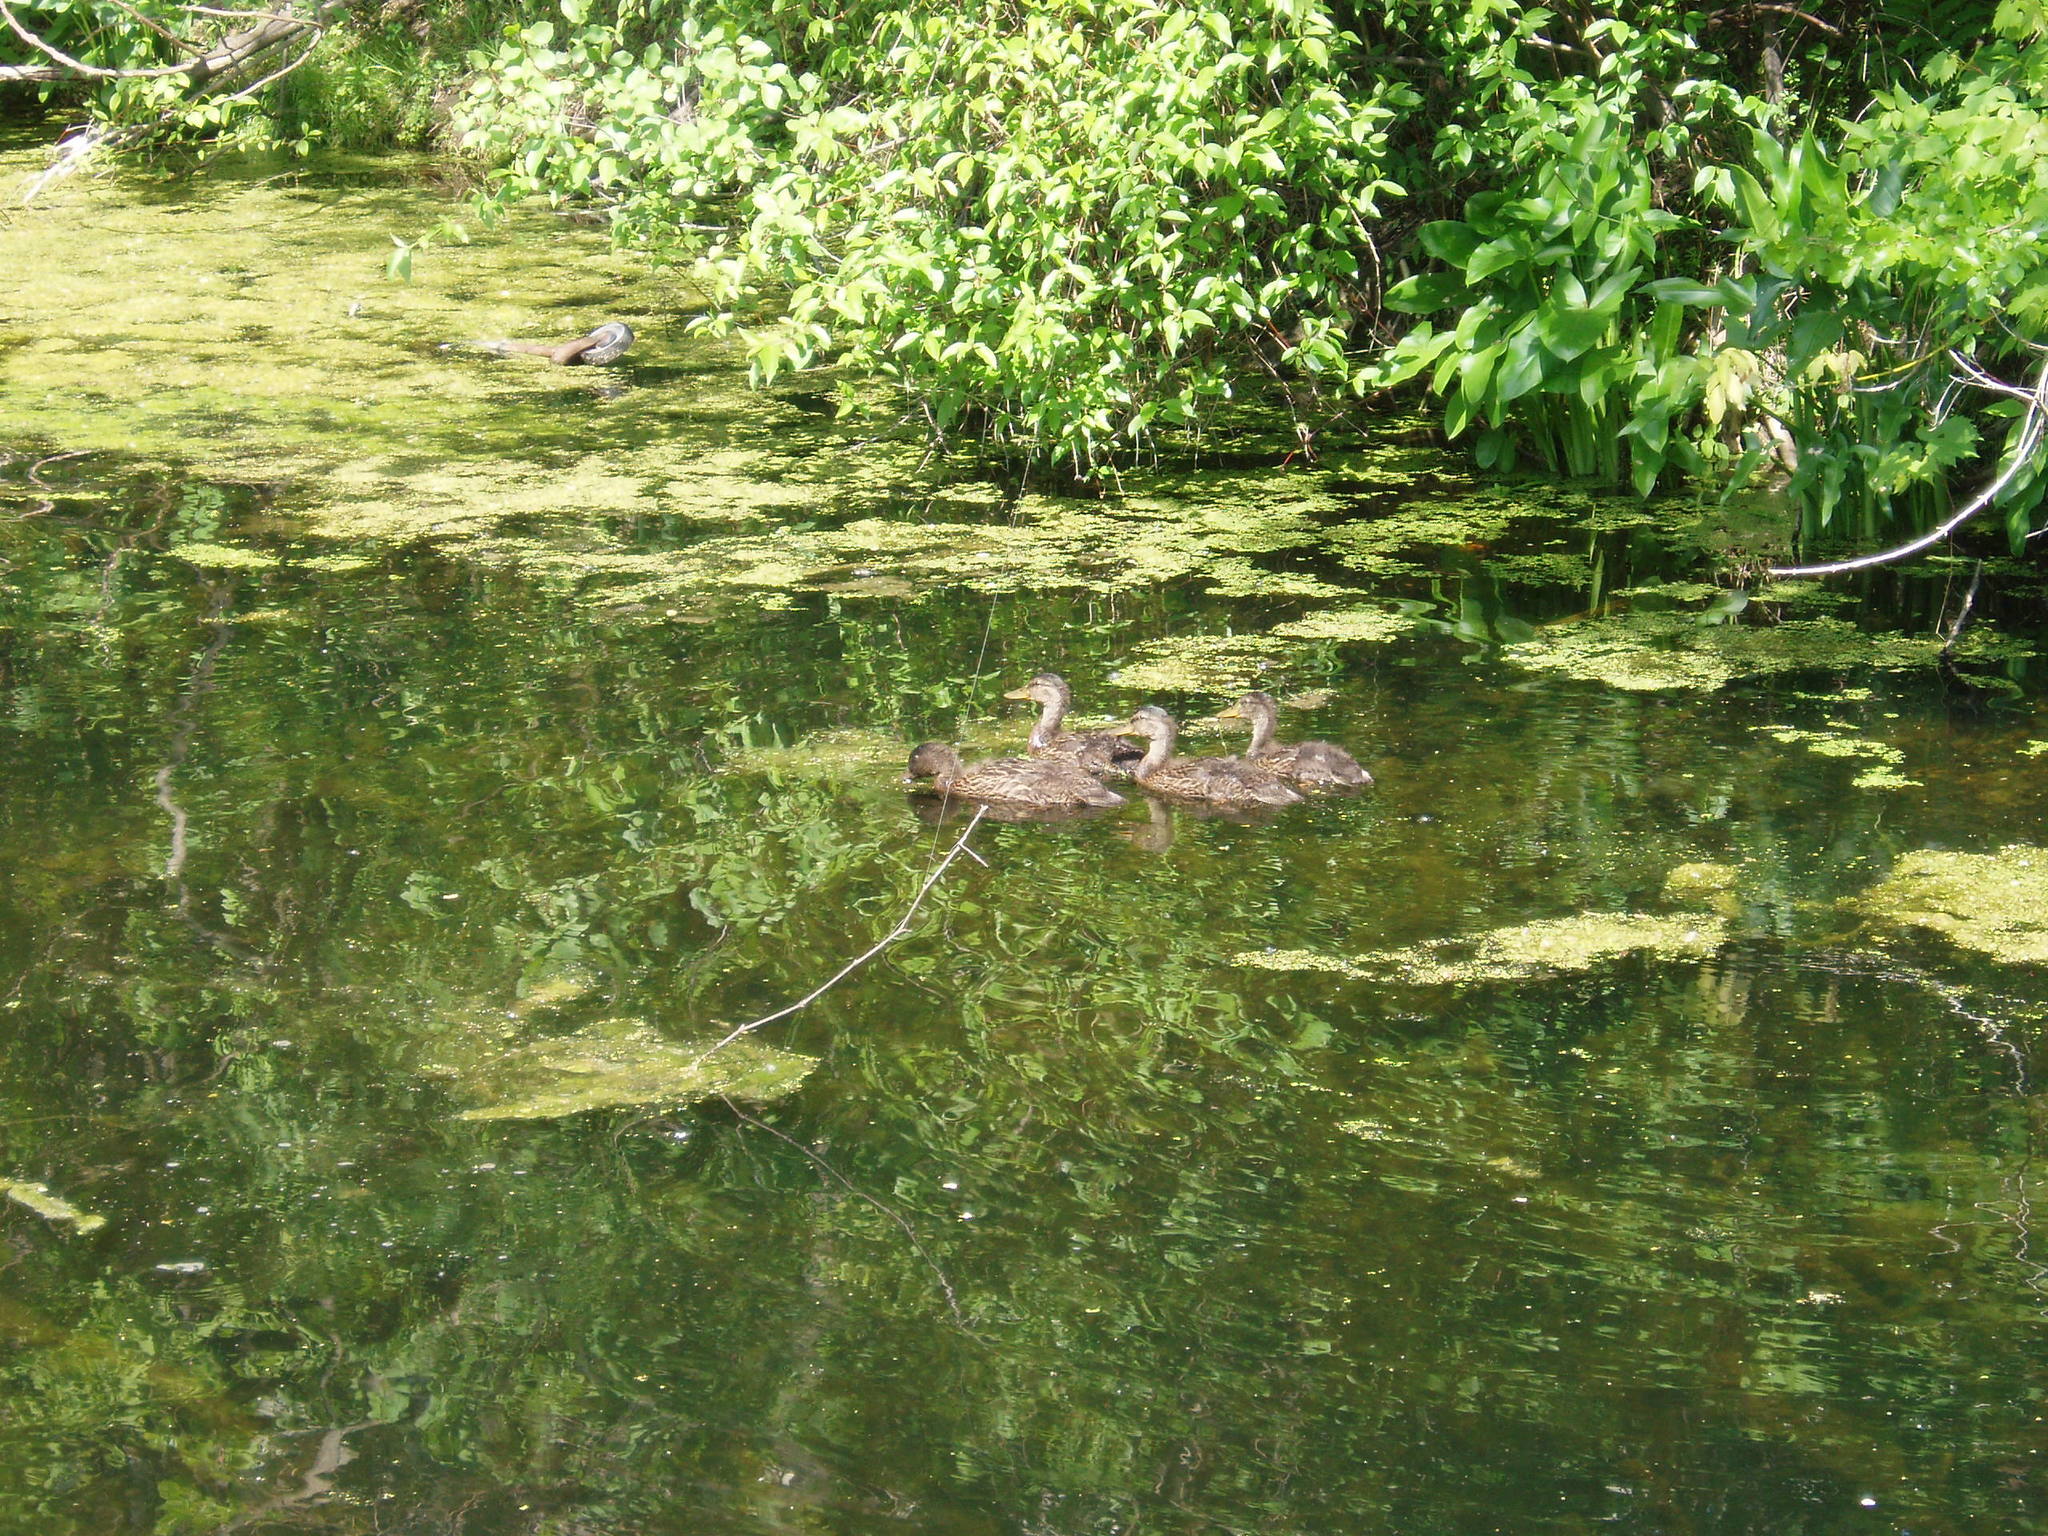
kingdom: Animalia
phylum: Chordata
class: Aves
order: Anseriformes
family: Anatidae
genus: Anas
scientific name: Anas rubripes
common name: American black duck
